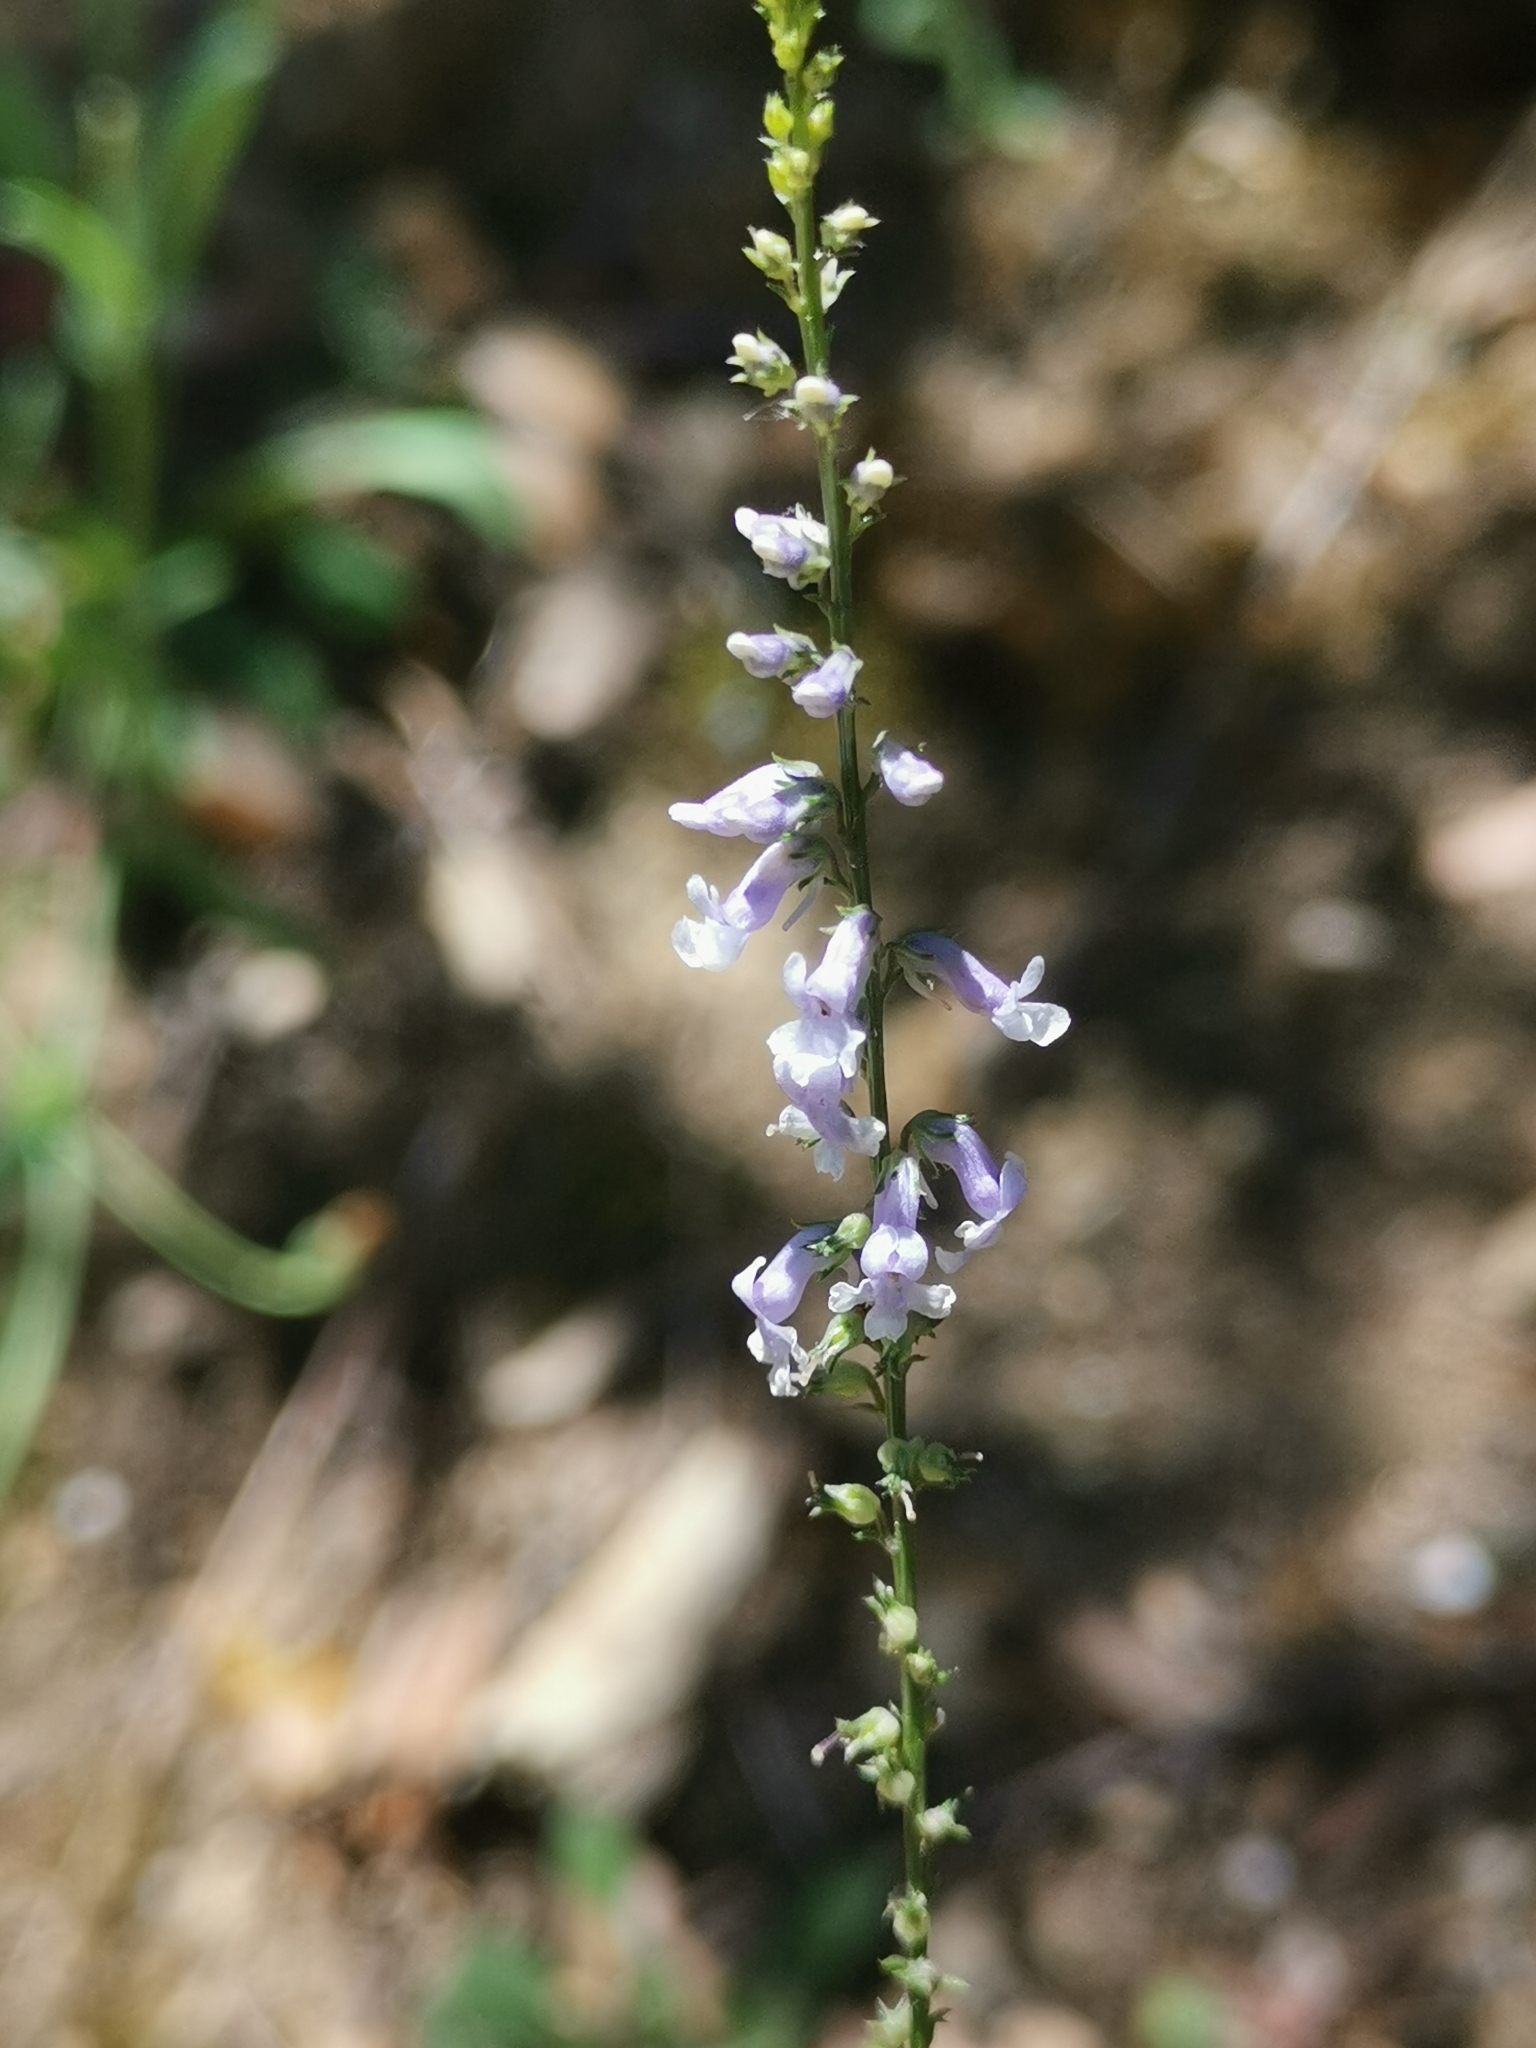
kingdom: Plantae
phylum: Tracheophyta
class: Magnoliopsida
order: Lamiales
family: Plantaginaceae
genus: Anarrhinum
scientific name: Anarrhinum bellidifolium
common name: Daisy-leaved toadflax
